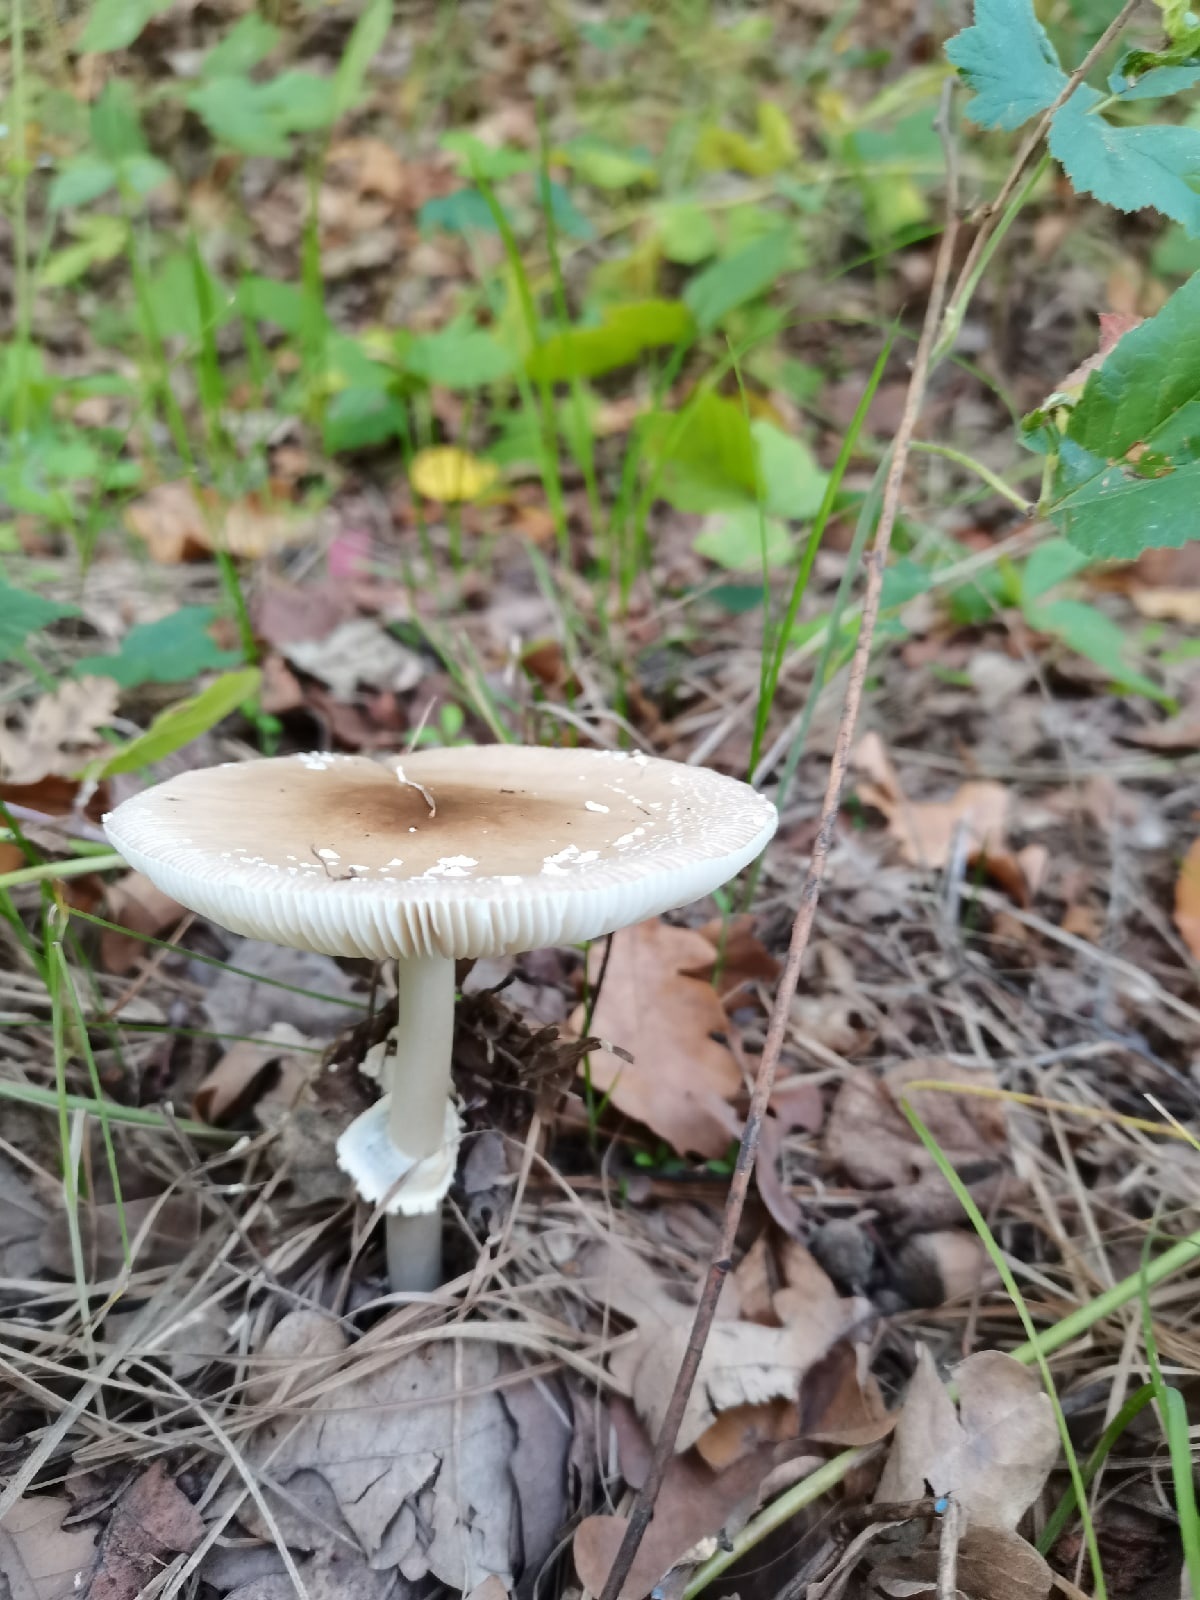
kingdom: Fungi
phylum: Basidiomycota
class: Agaricomycetes
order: Agaricales
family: Amanitaceae
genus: Amanita
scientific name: Amanita pantherina
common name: Panthercap
